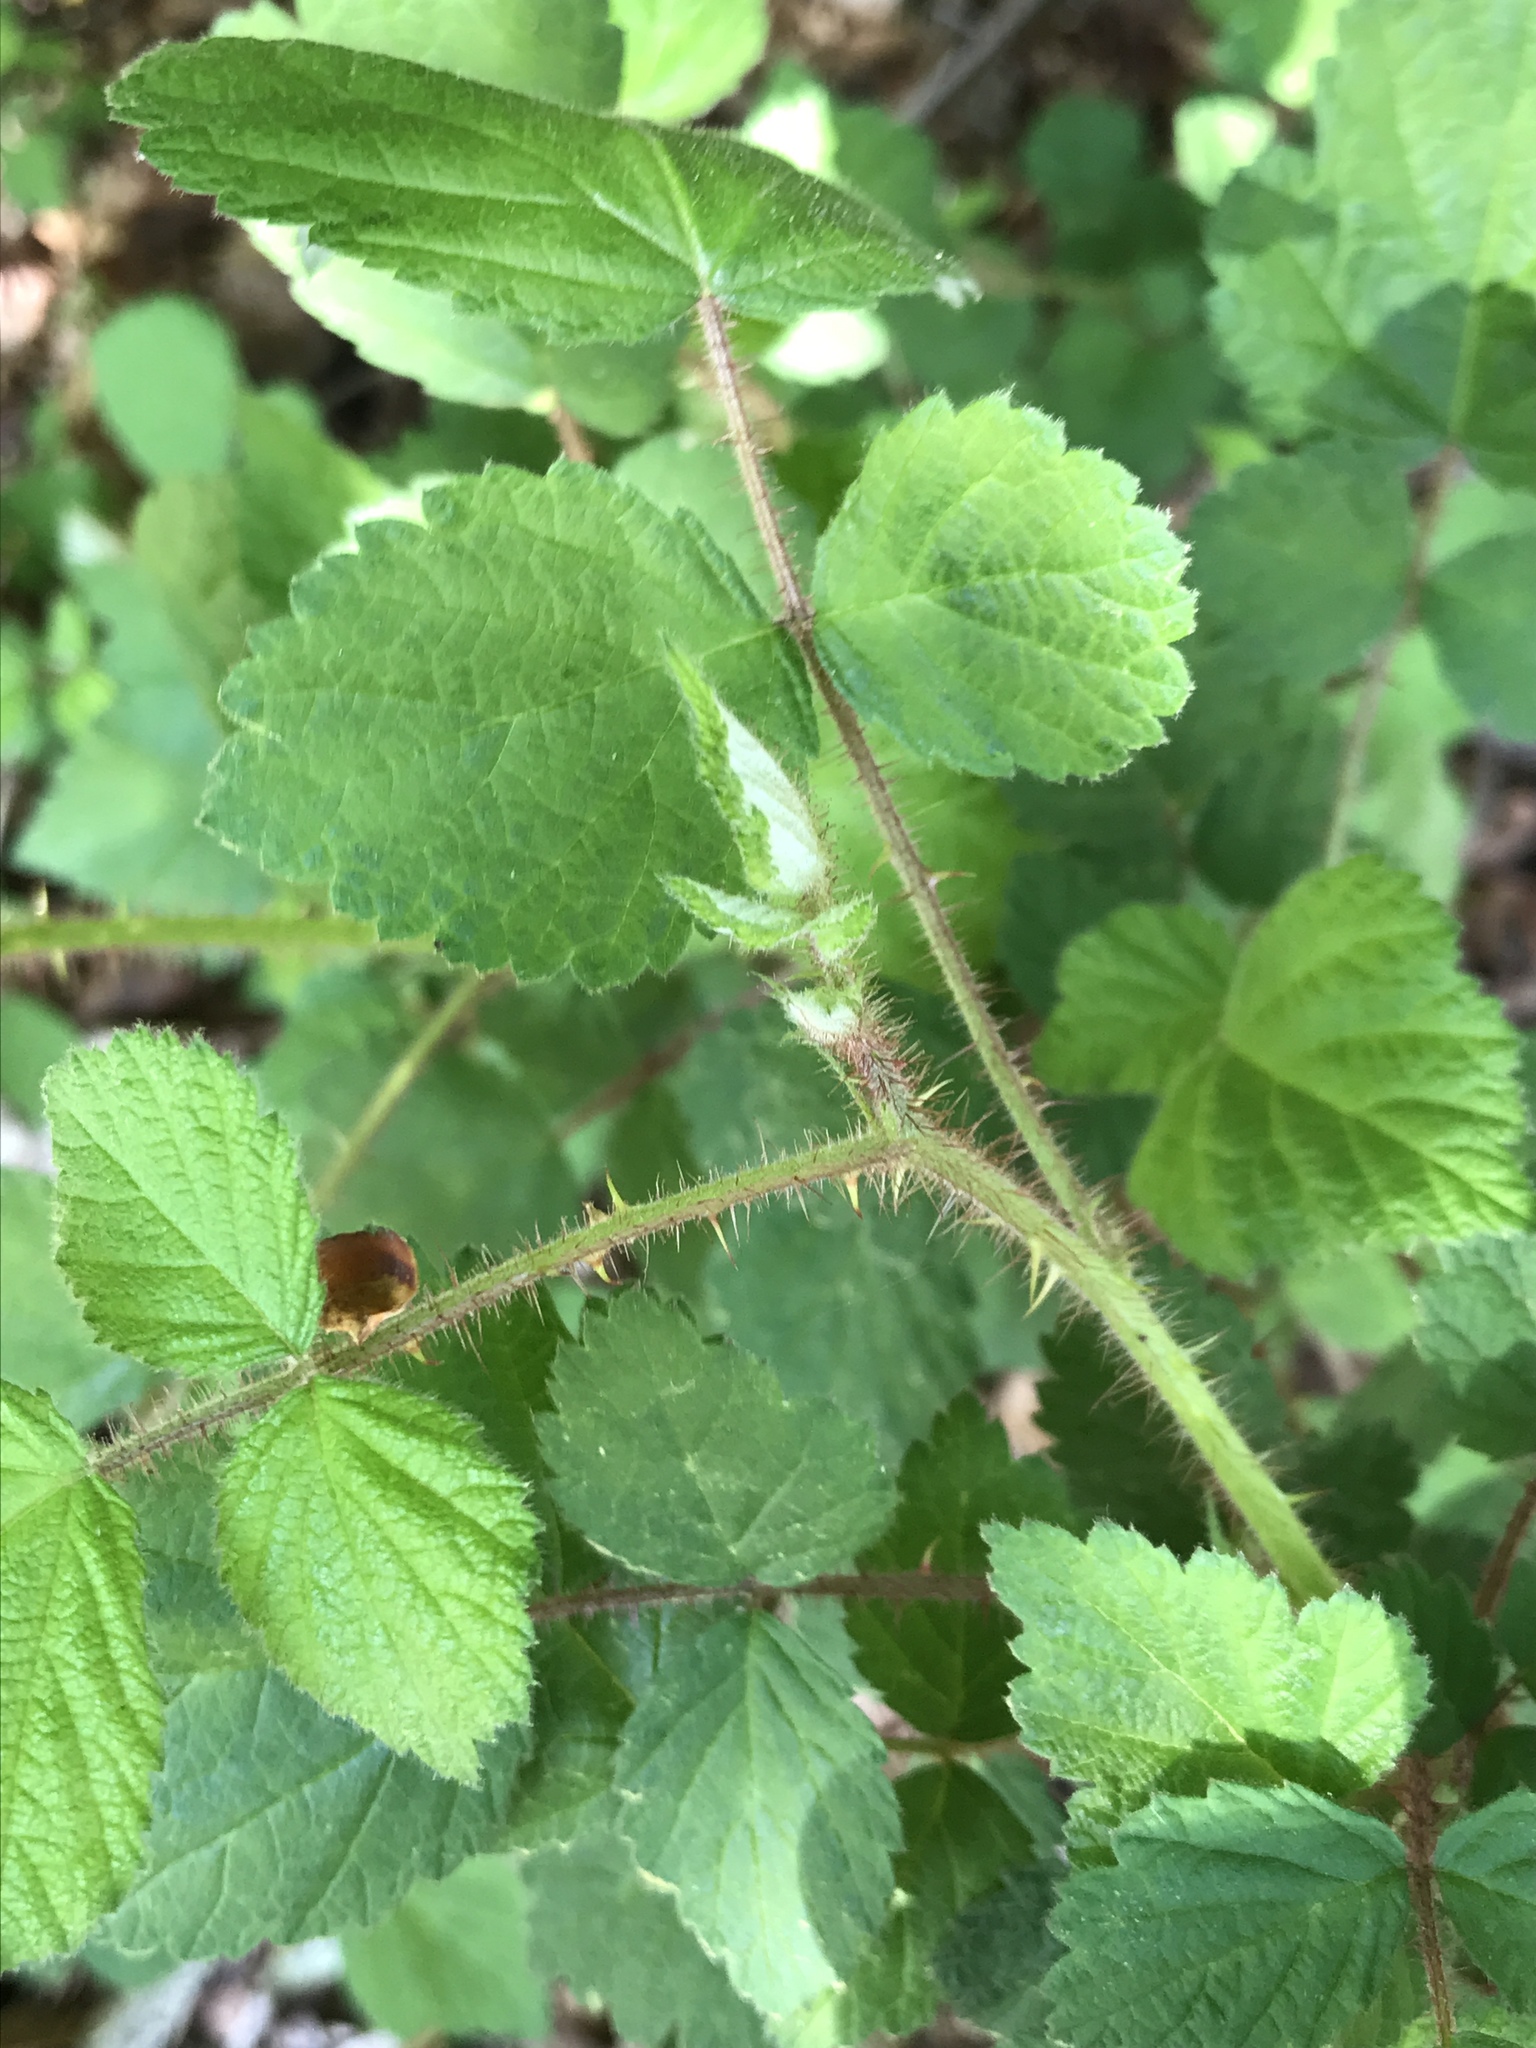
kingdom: Plantae
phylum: Tracheophyta
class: Magnoliopsida
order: Rosales
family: Rosaceae
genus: Rubus
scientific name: Rubus phoenicolasius
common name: Japanese wineberry
